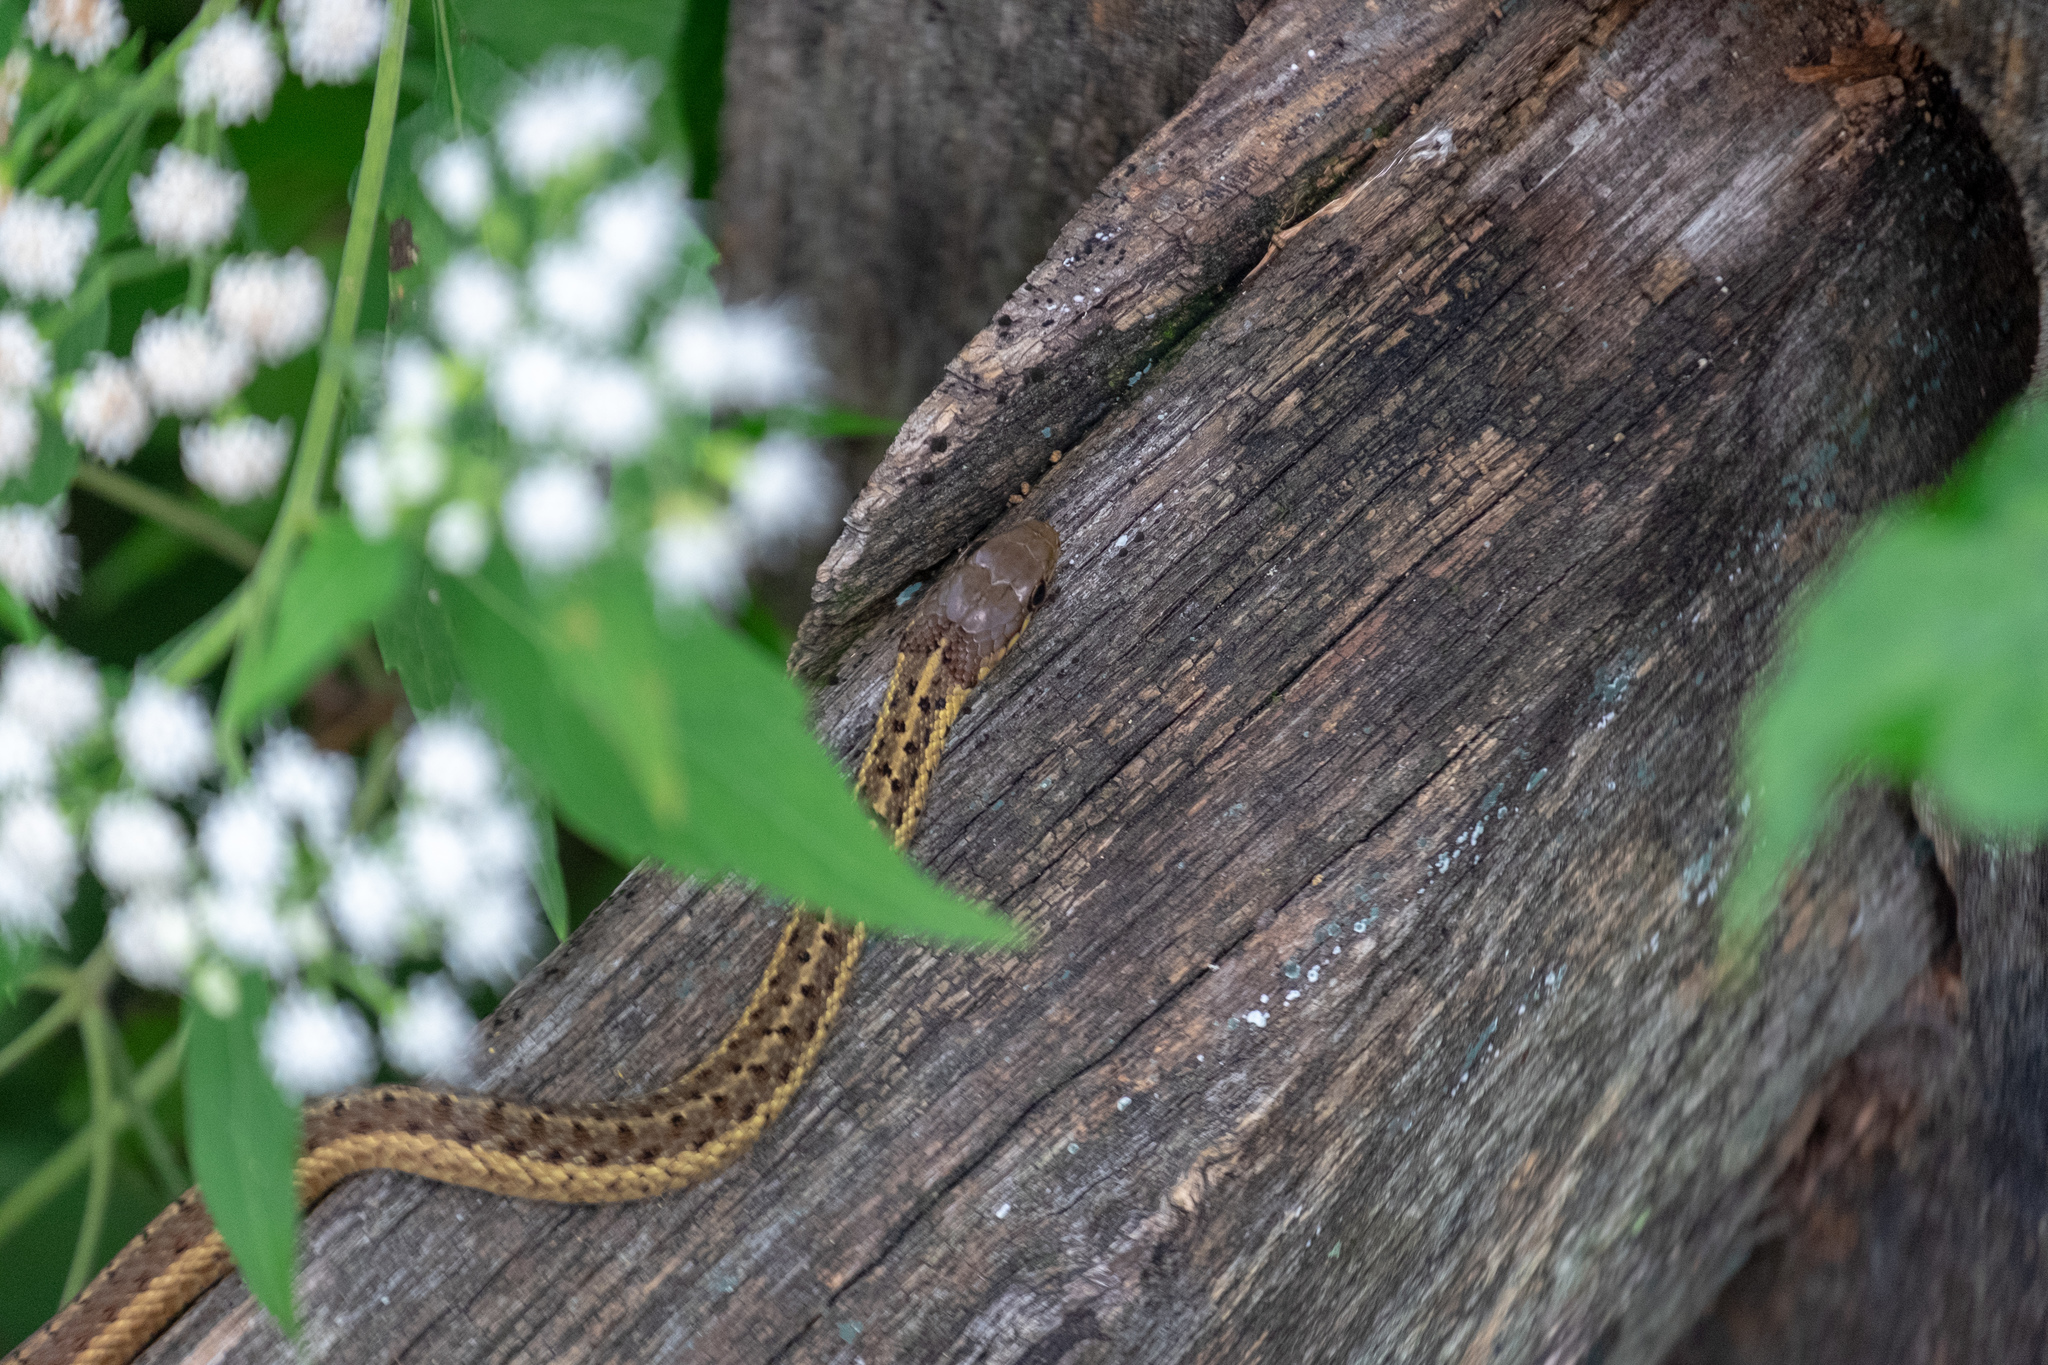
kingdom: Animalia
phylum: Chordata
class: Squamata
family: Colubridae
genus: Thamnophis
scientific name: Thamnophis sirtalis
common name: Common garter snake
